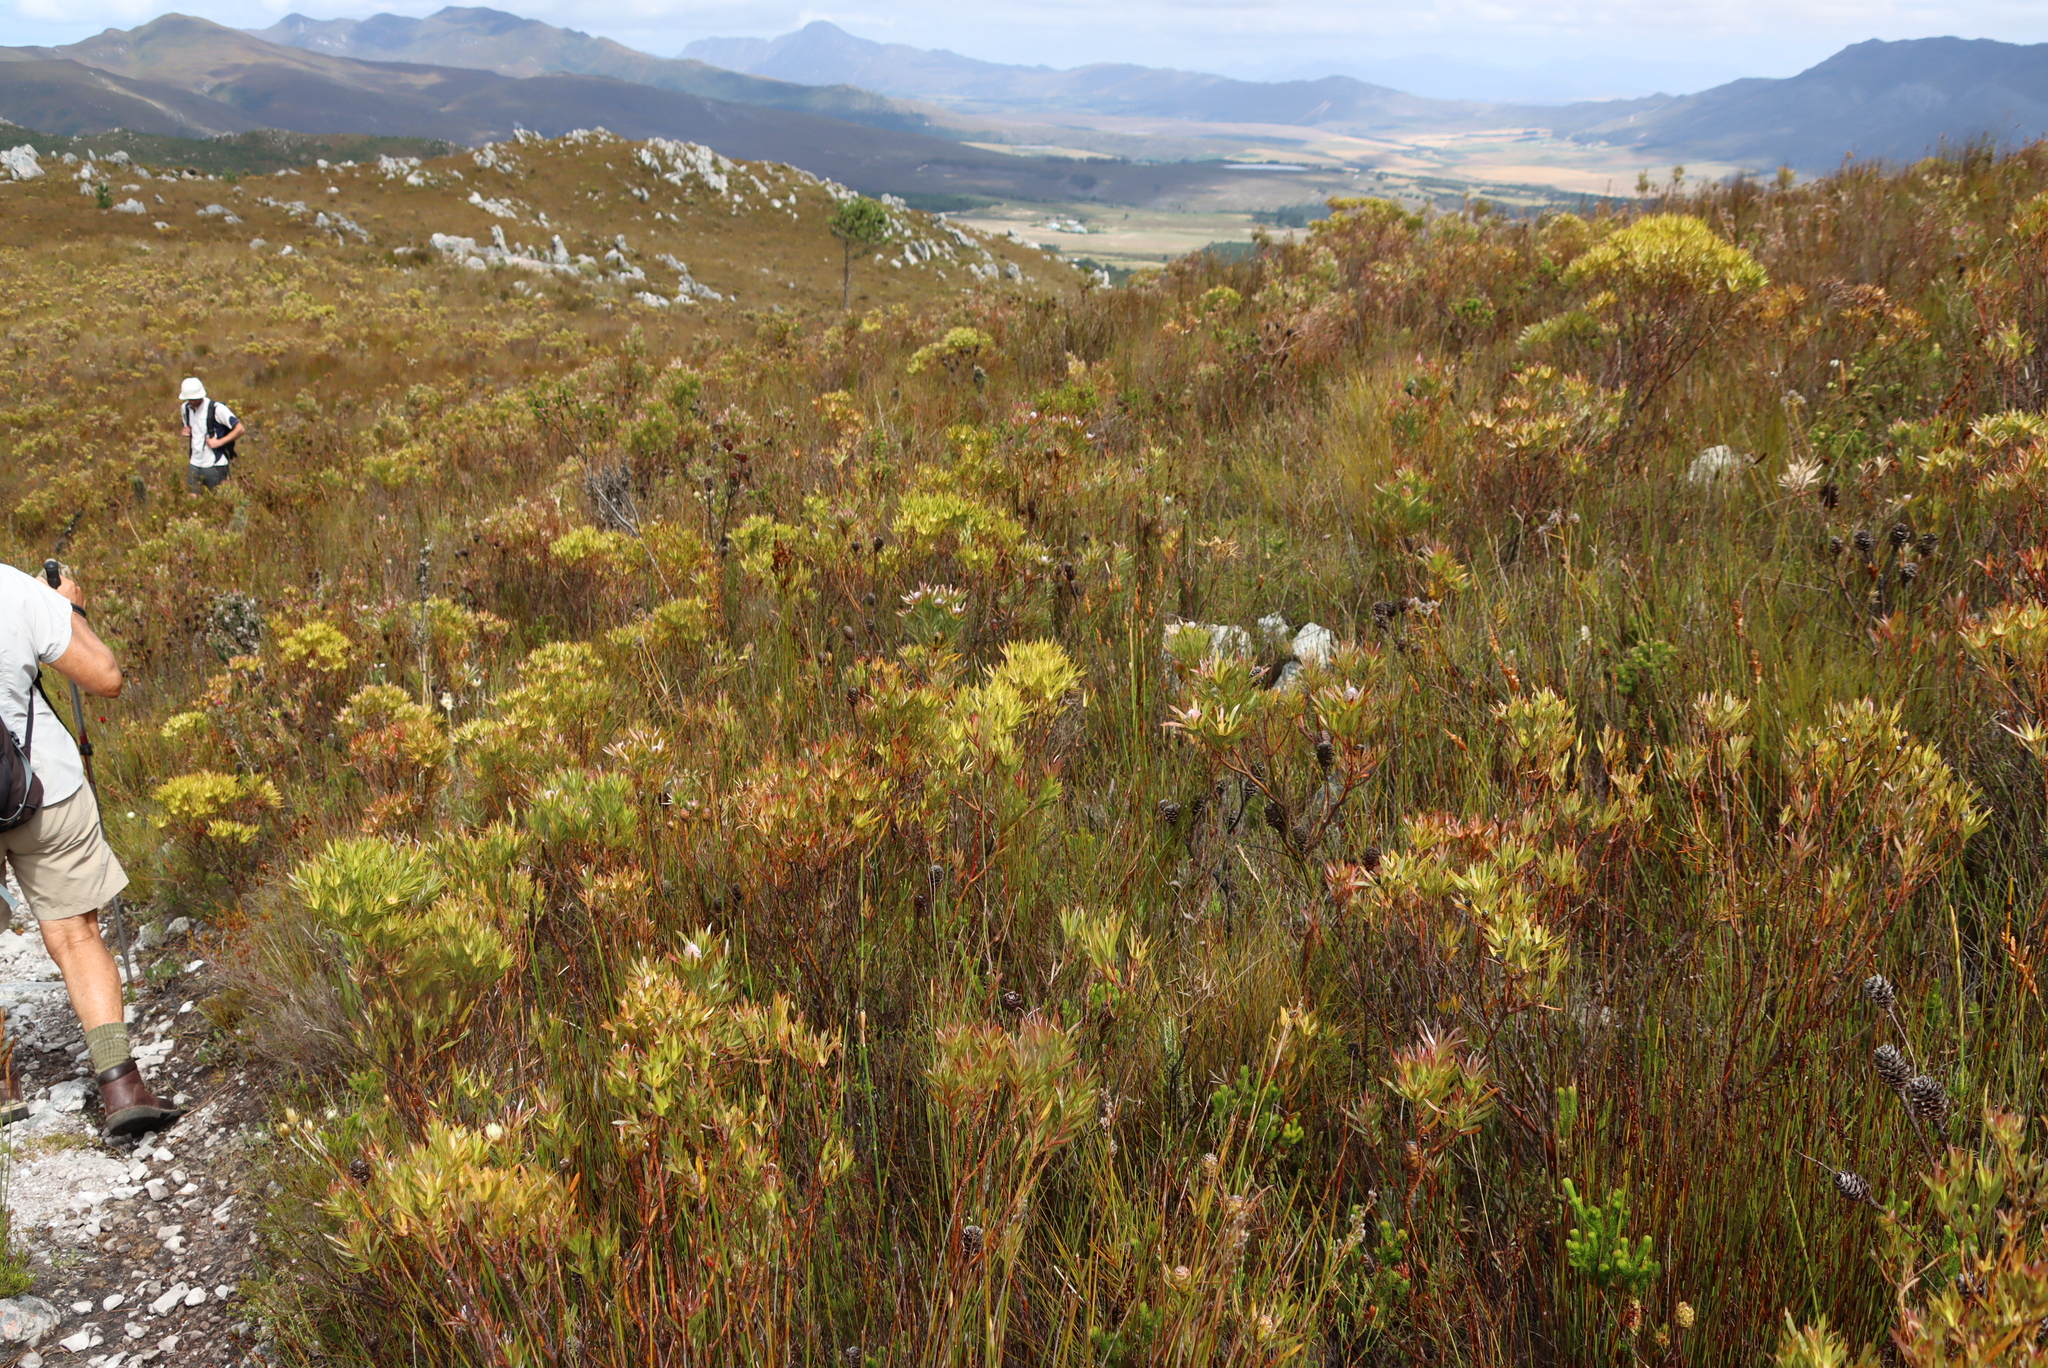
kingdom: Plantae
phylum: Tracheophyta
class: Magnoliopsida
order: Proteales
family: Proteaceae
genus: Leucadendron
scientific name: Leucadendron xanthoconus
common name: Sickle-leaf conebush
